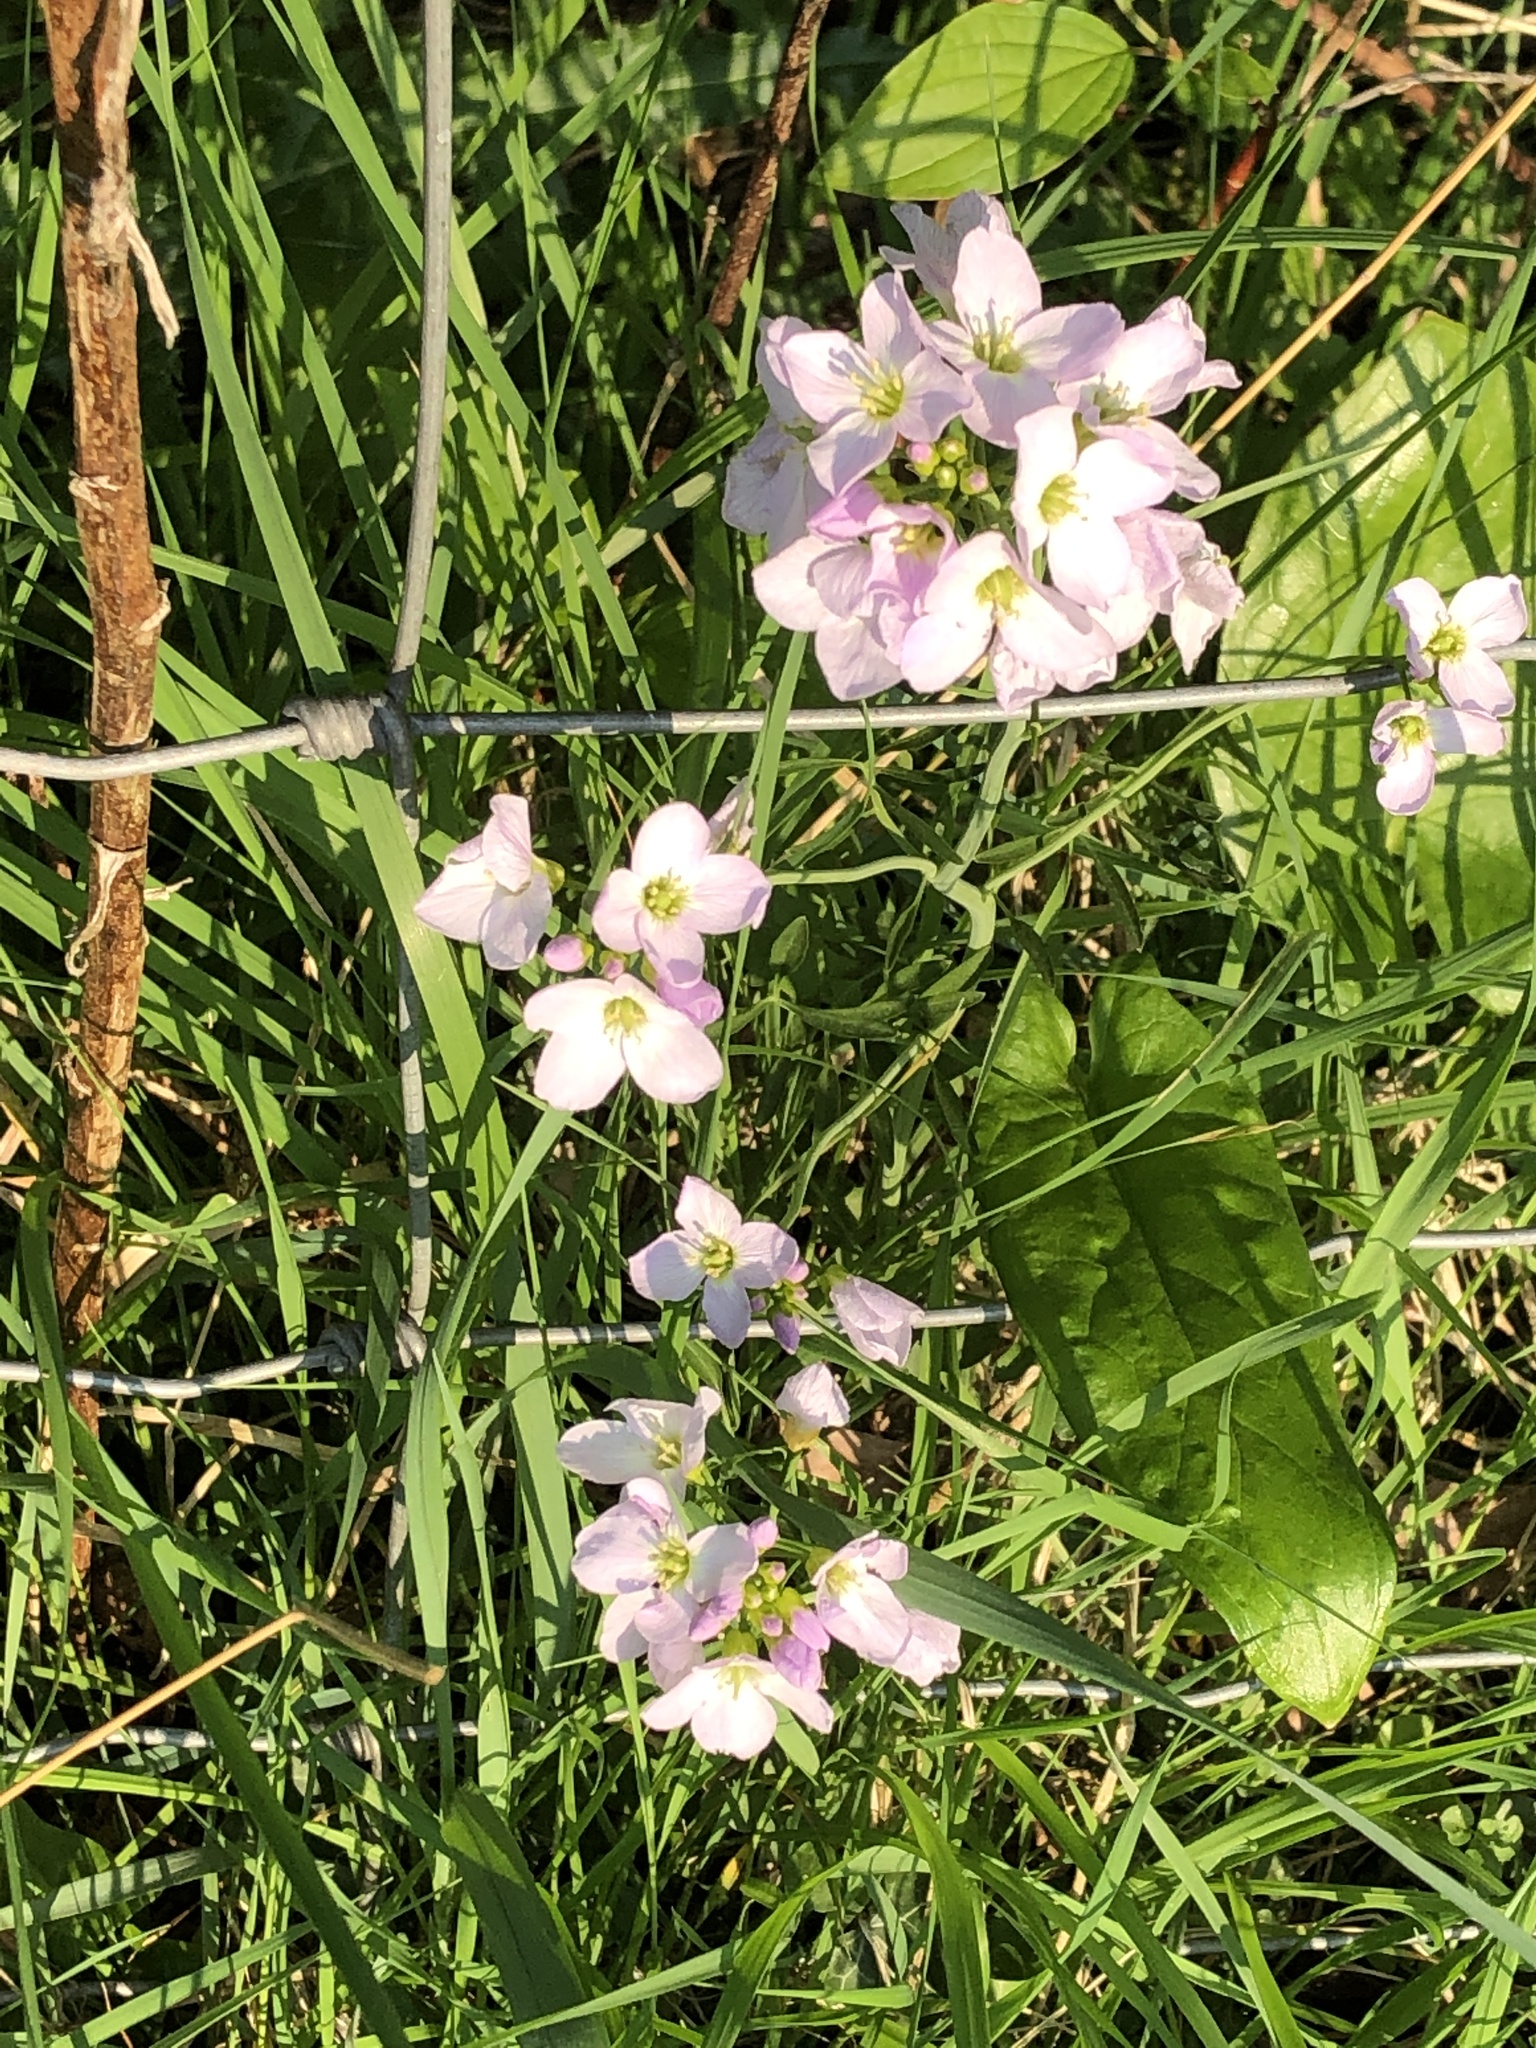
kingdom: Plantae
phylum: Tracheophyta
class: Magnoliopsida
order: Brassicales
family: Brassicaceae
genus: Cardamine
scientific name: Cardamine pratensis
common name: Cuckoo flower
